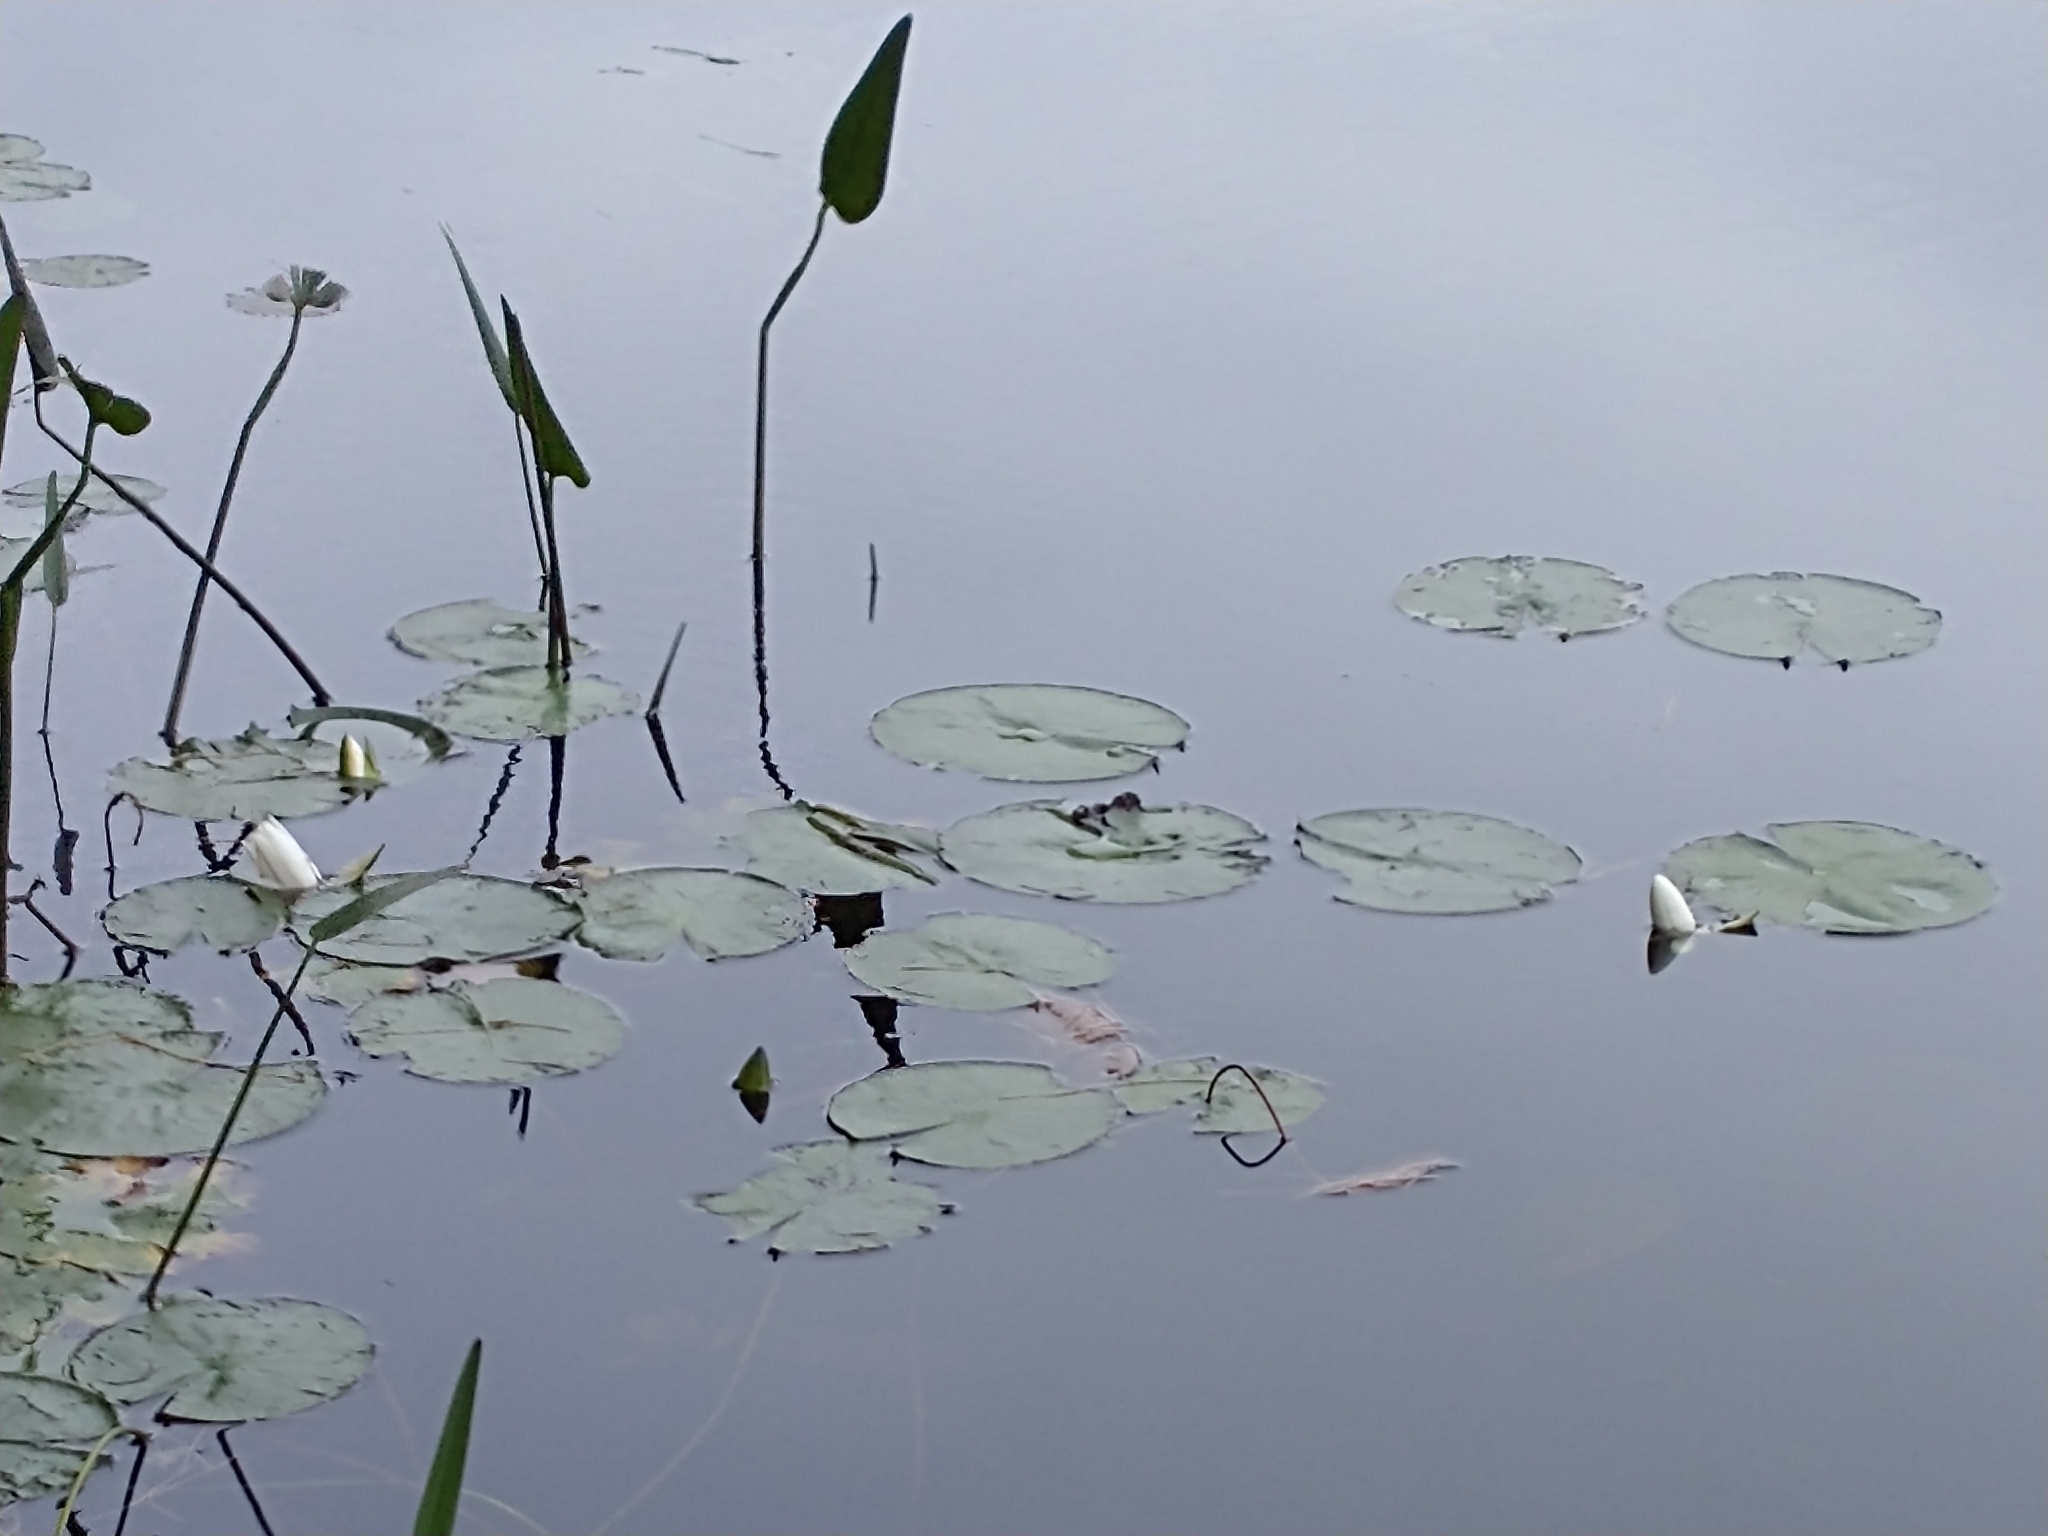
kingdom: Plantae
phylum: Tracheophyta
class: Magnoliopsida
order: Nymphaeales
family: Nymphaeaceae
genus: Nymphaea
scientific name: Nymphaea odorata
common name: Fragrant water-lily
